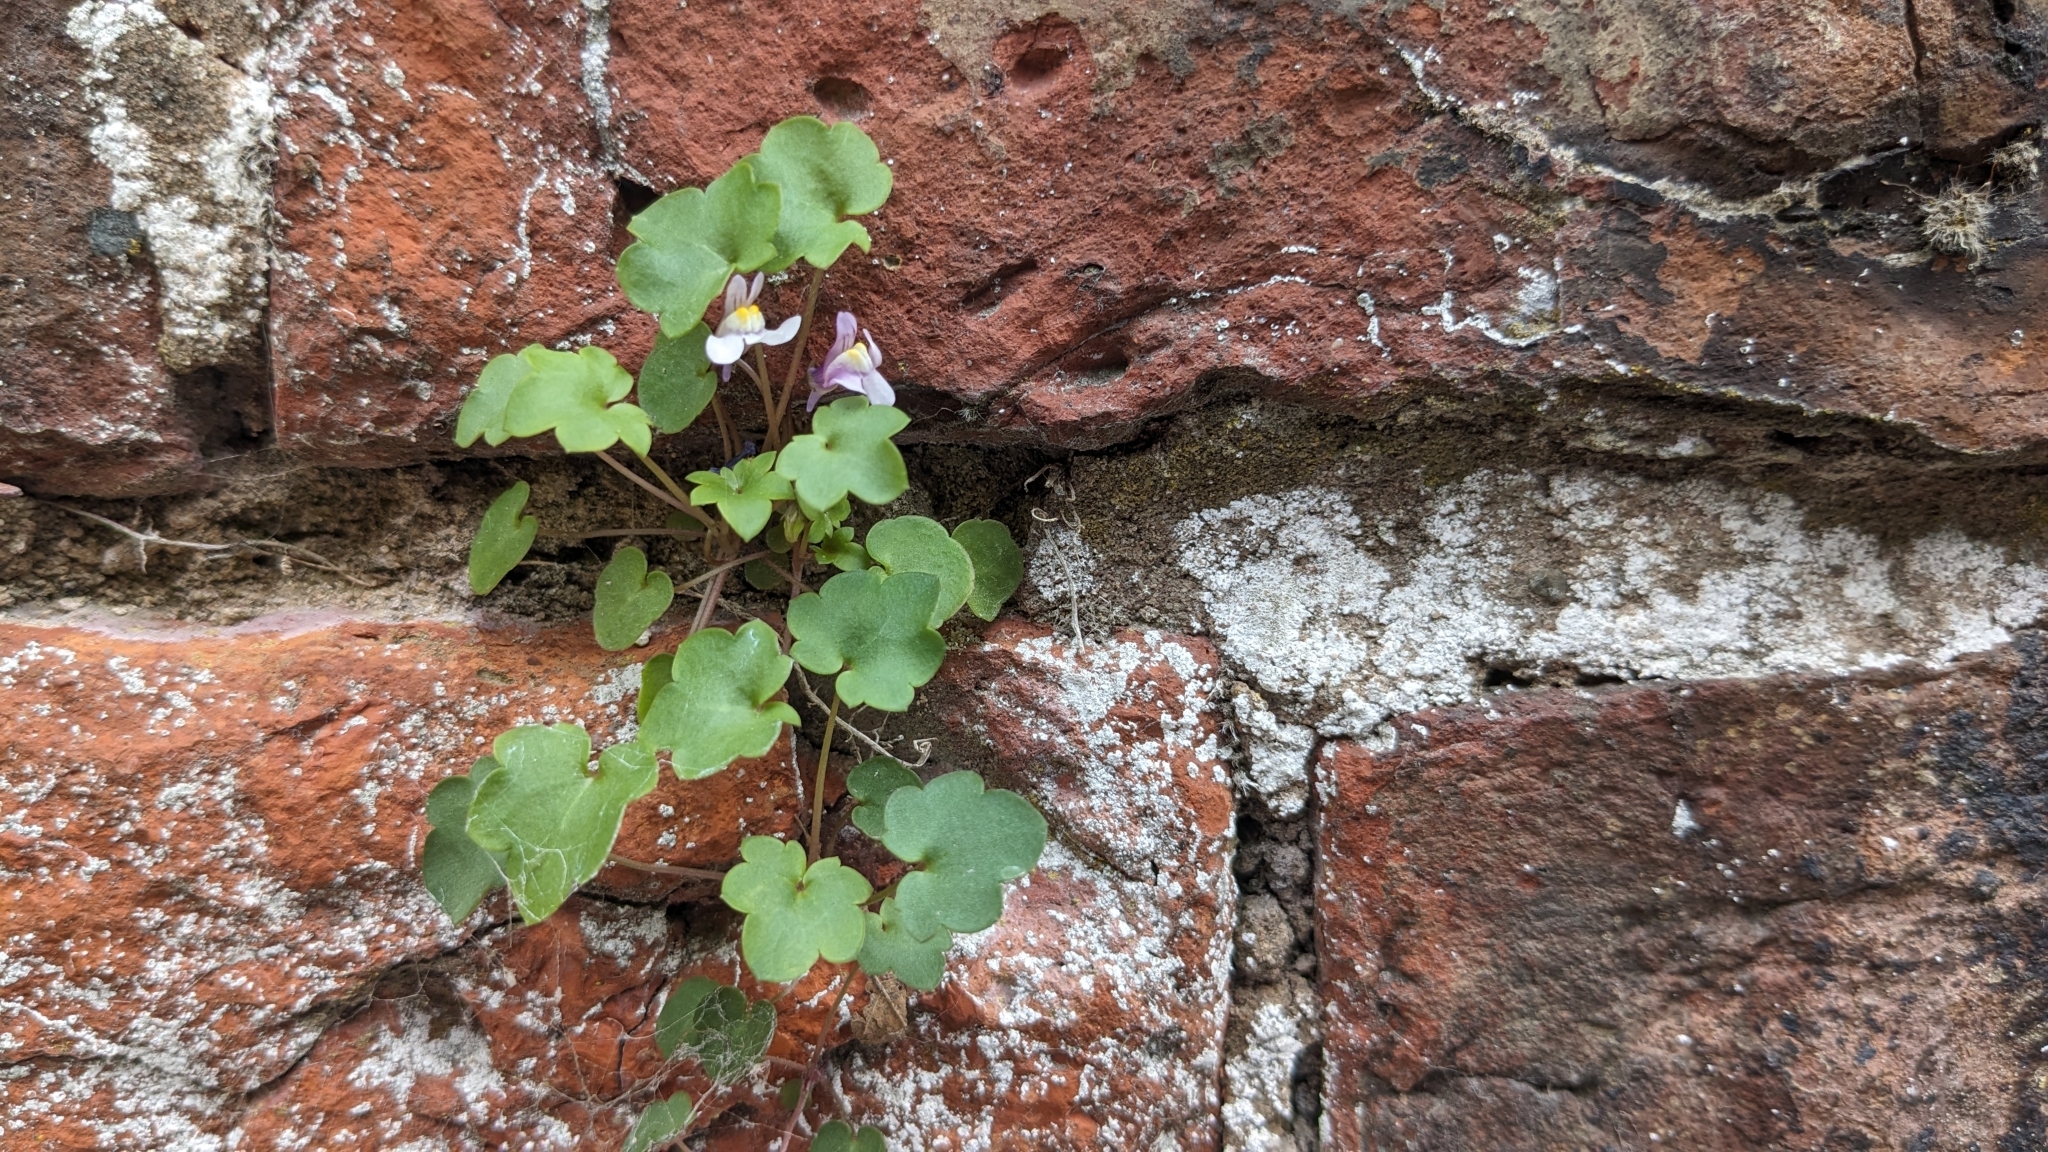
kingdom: Plantae
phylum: Tracheophyta
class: Magnoliopsida
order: Lamiales
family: Plantaginaceae
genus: Cymbalaria
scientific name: Cymbalaria muralis
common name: Ivy-leaved toadflax
